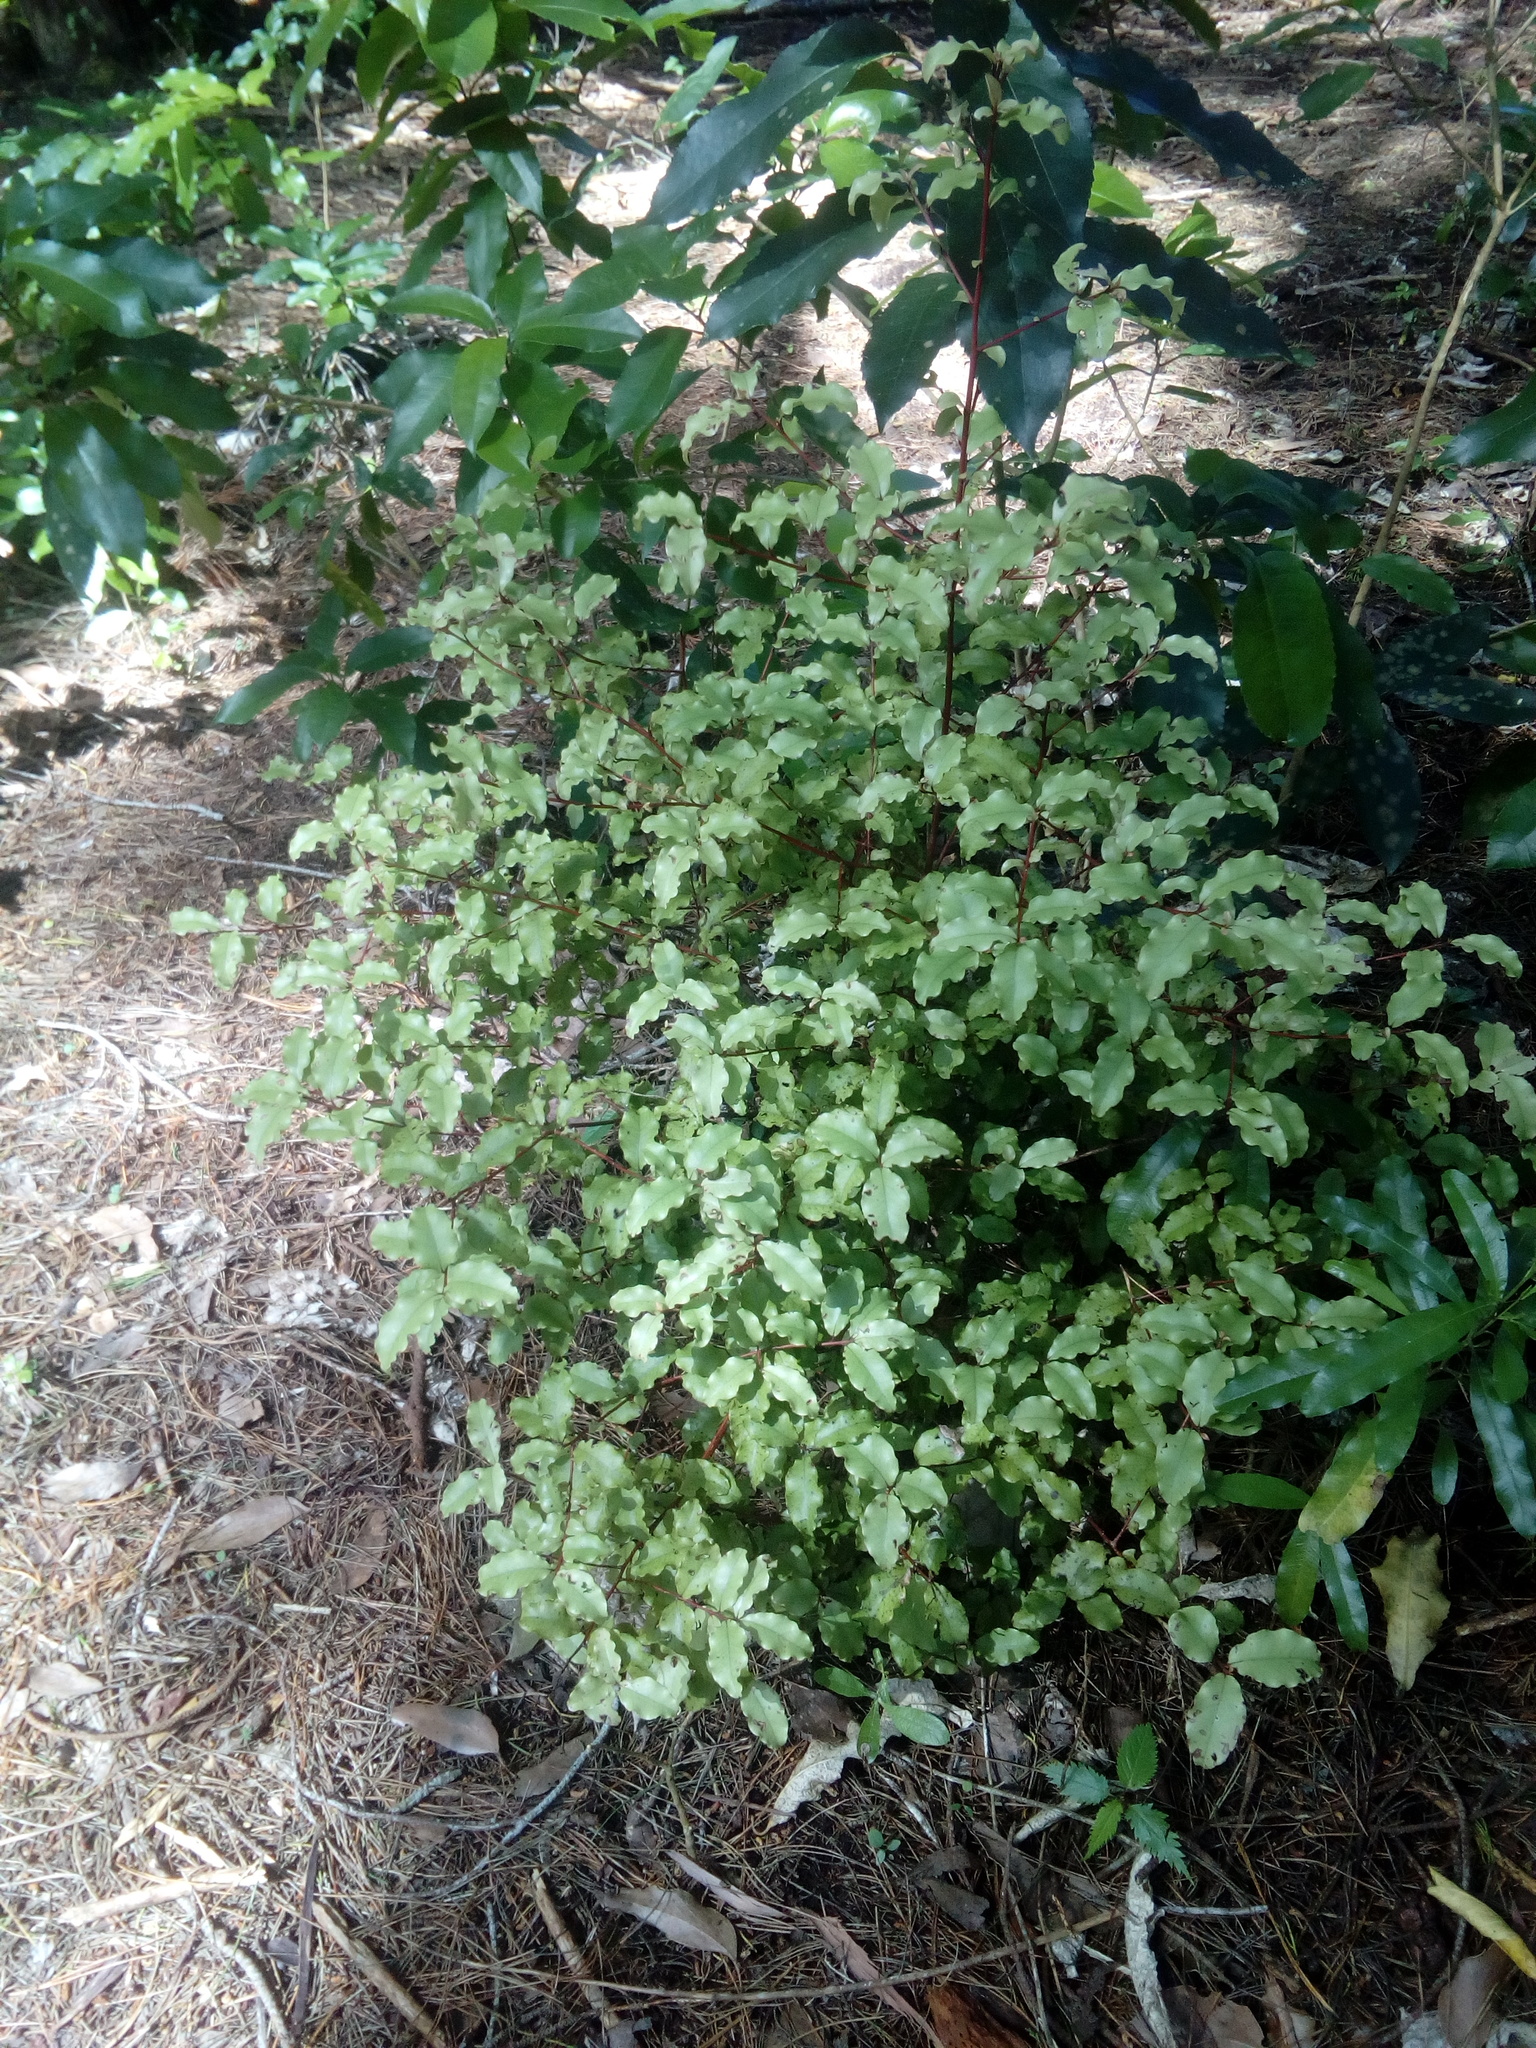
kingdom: Plantae
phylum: Tracheophyta
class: Magnoliopsida
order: Ericales
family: Primulaceae
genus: Myrsine
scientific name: Myrsine australis
